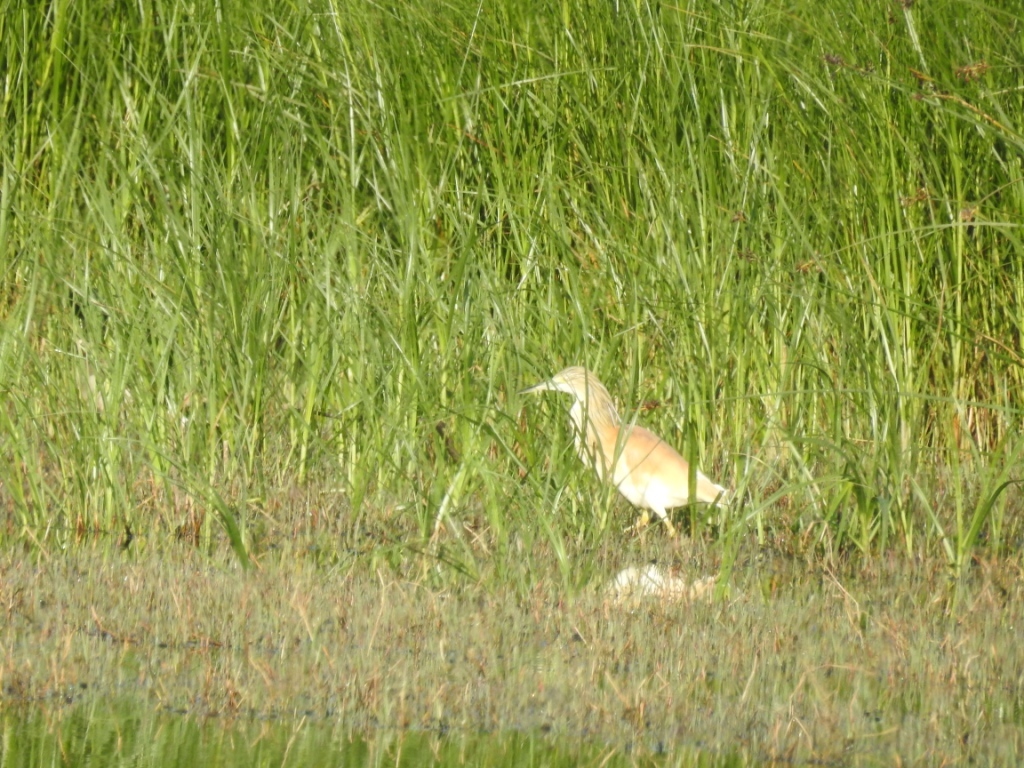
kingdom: Animalia
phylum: Chordata
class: Aves
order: Pelecaniformes
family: Ardeidae
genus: Ardeola
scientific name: Ardeola ralloides
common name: Squacco heron
